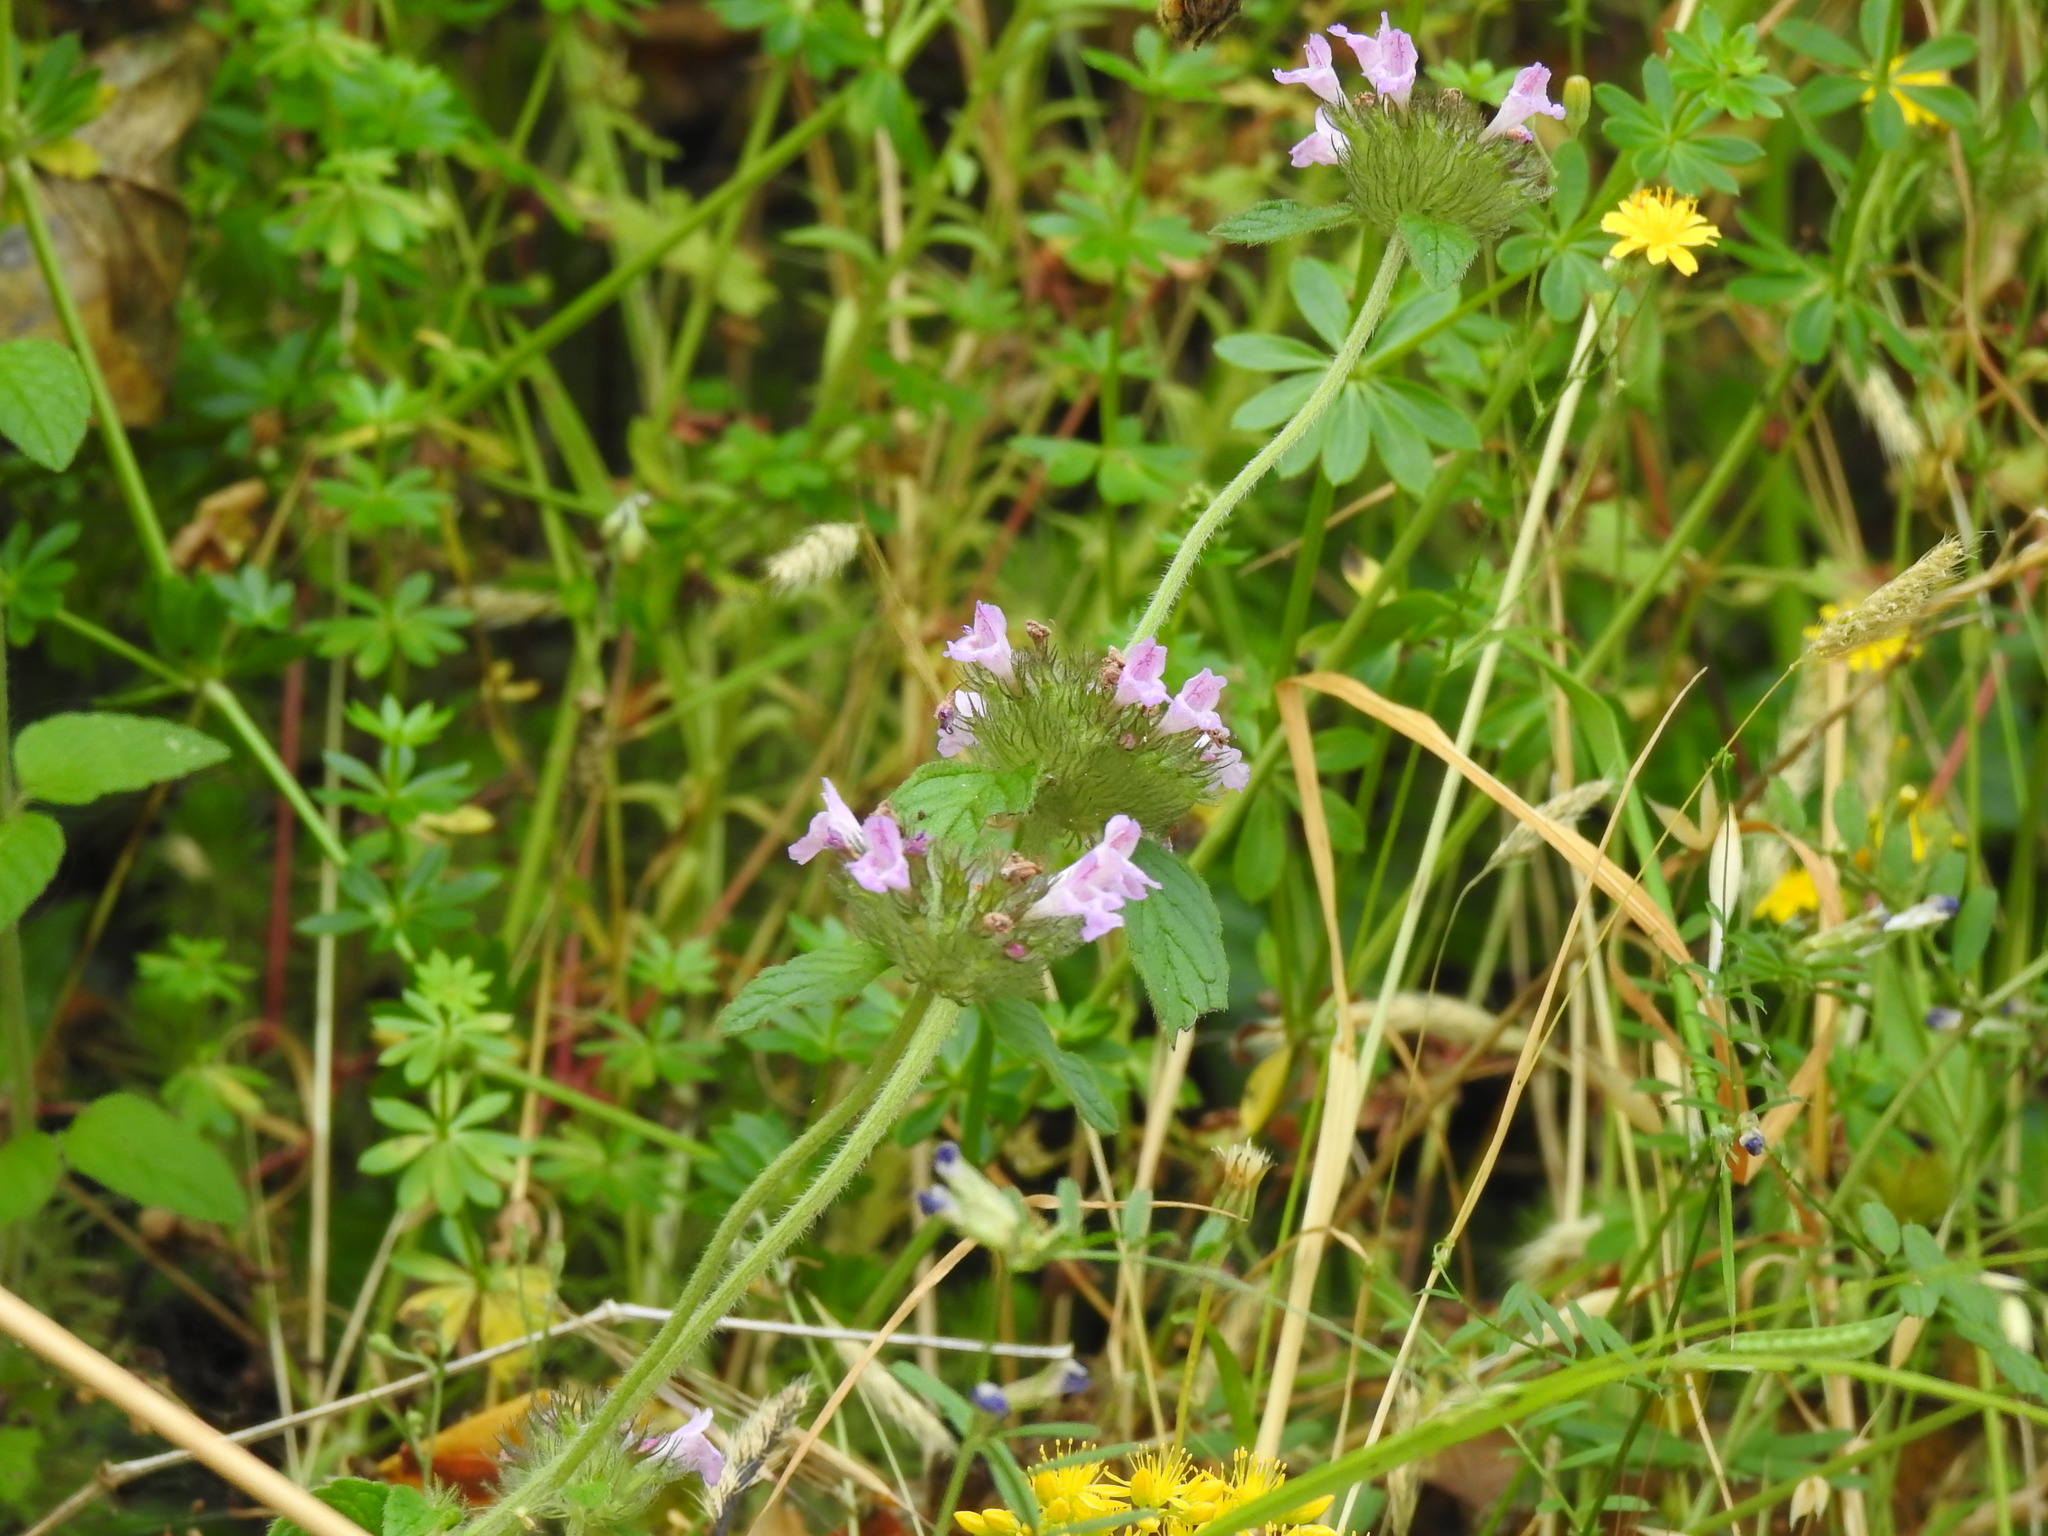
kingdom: Plantae
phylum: Tracheophyta
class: Magnoliopsida
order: Lamiales
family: Lamiaceae
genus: Clinopodium
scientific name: Clinopodium vulgare
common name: Wild basil
